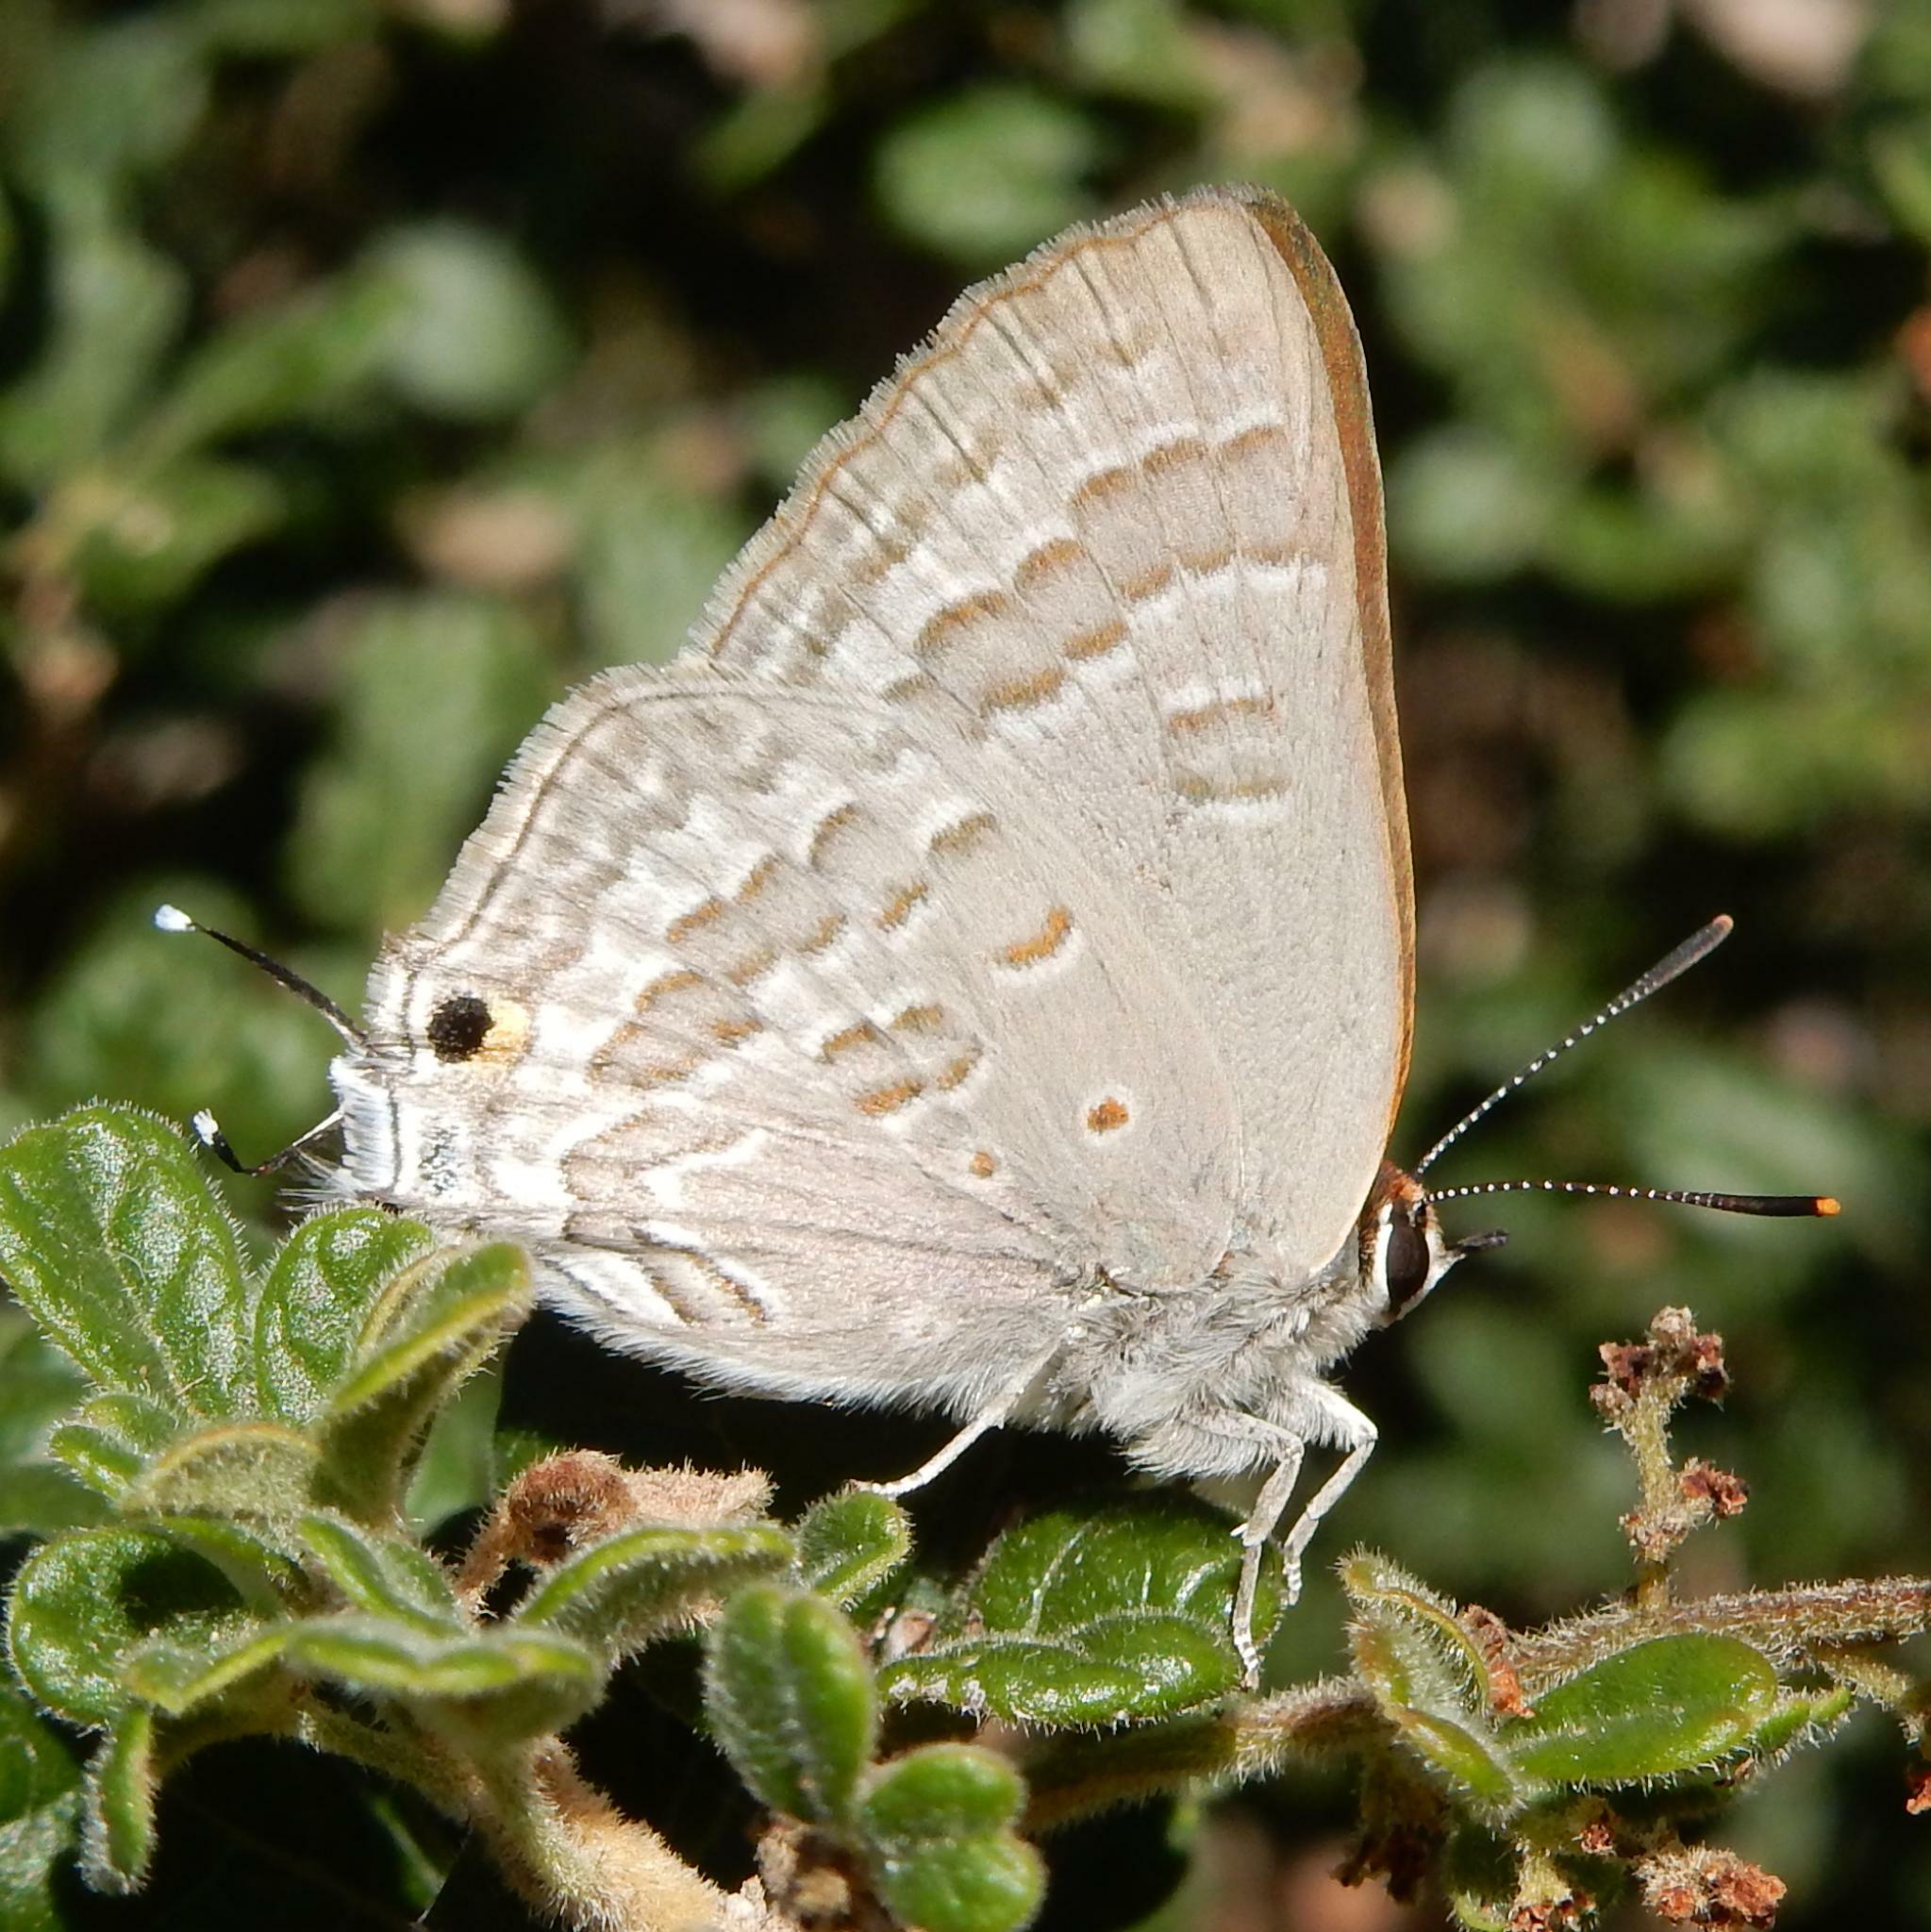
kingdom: Animalia
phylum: Arthropoda
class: Insecta
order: Lepidoptera
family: Lycaenidae
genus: Deudorix
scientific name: Deudorix antalus
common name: Brown playboy
